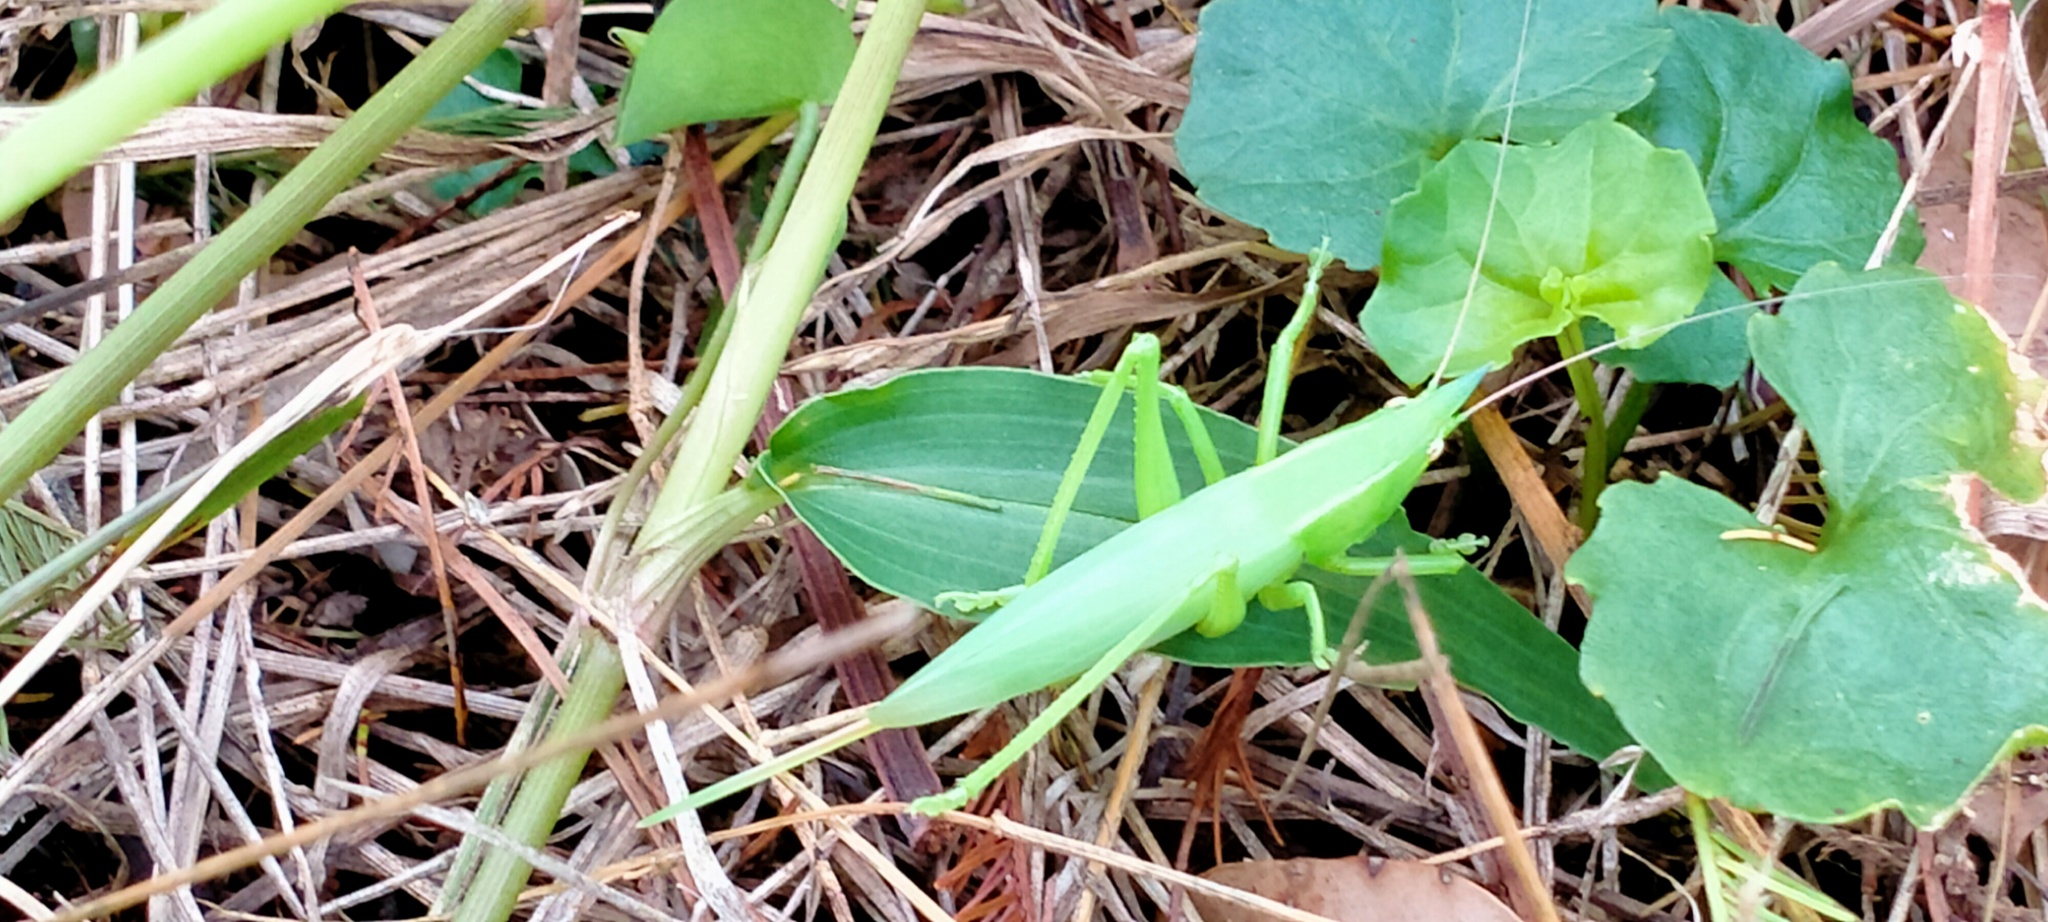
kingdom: Animalia
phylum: Arthropoda
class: Insecta
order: Orthoptera
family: Tettigoniidae
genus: Pseudorhynchus
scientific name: Pseudorhynchus mimeticus
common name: Mimicking snout-nosed katydid
